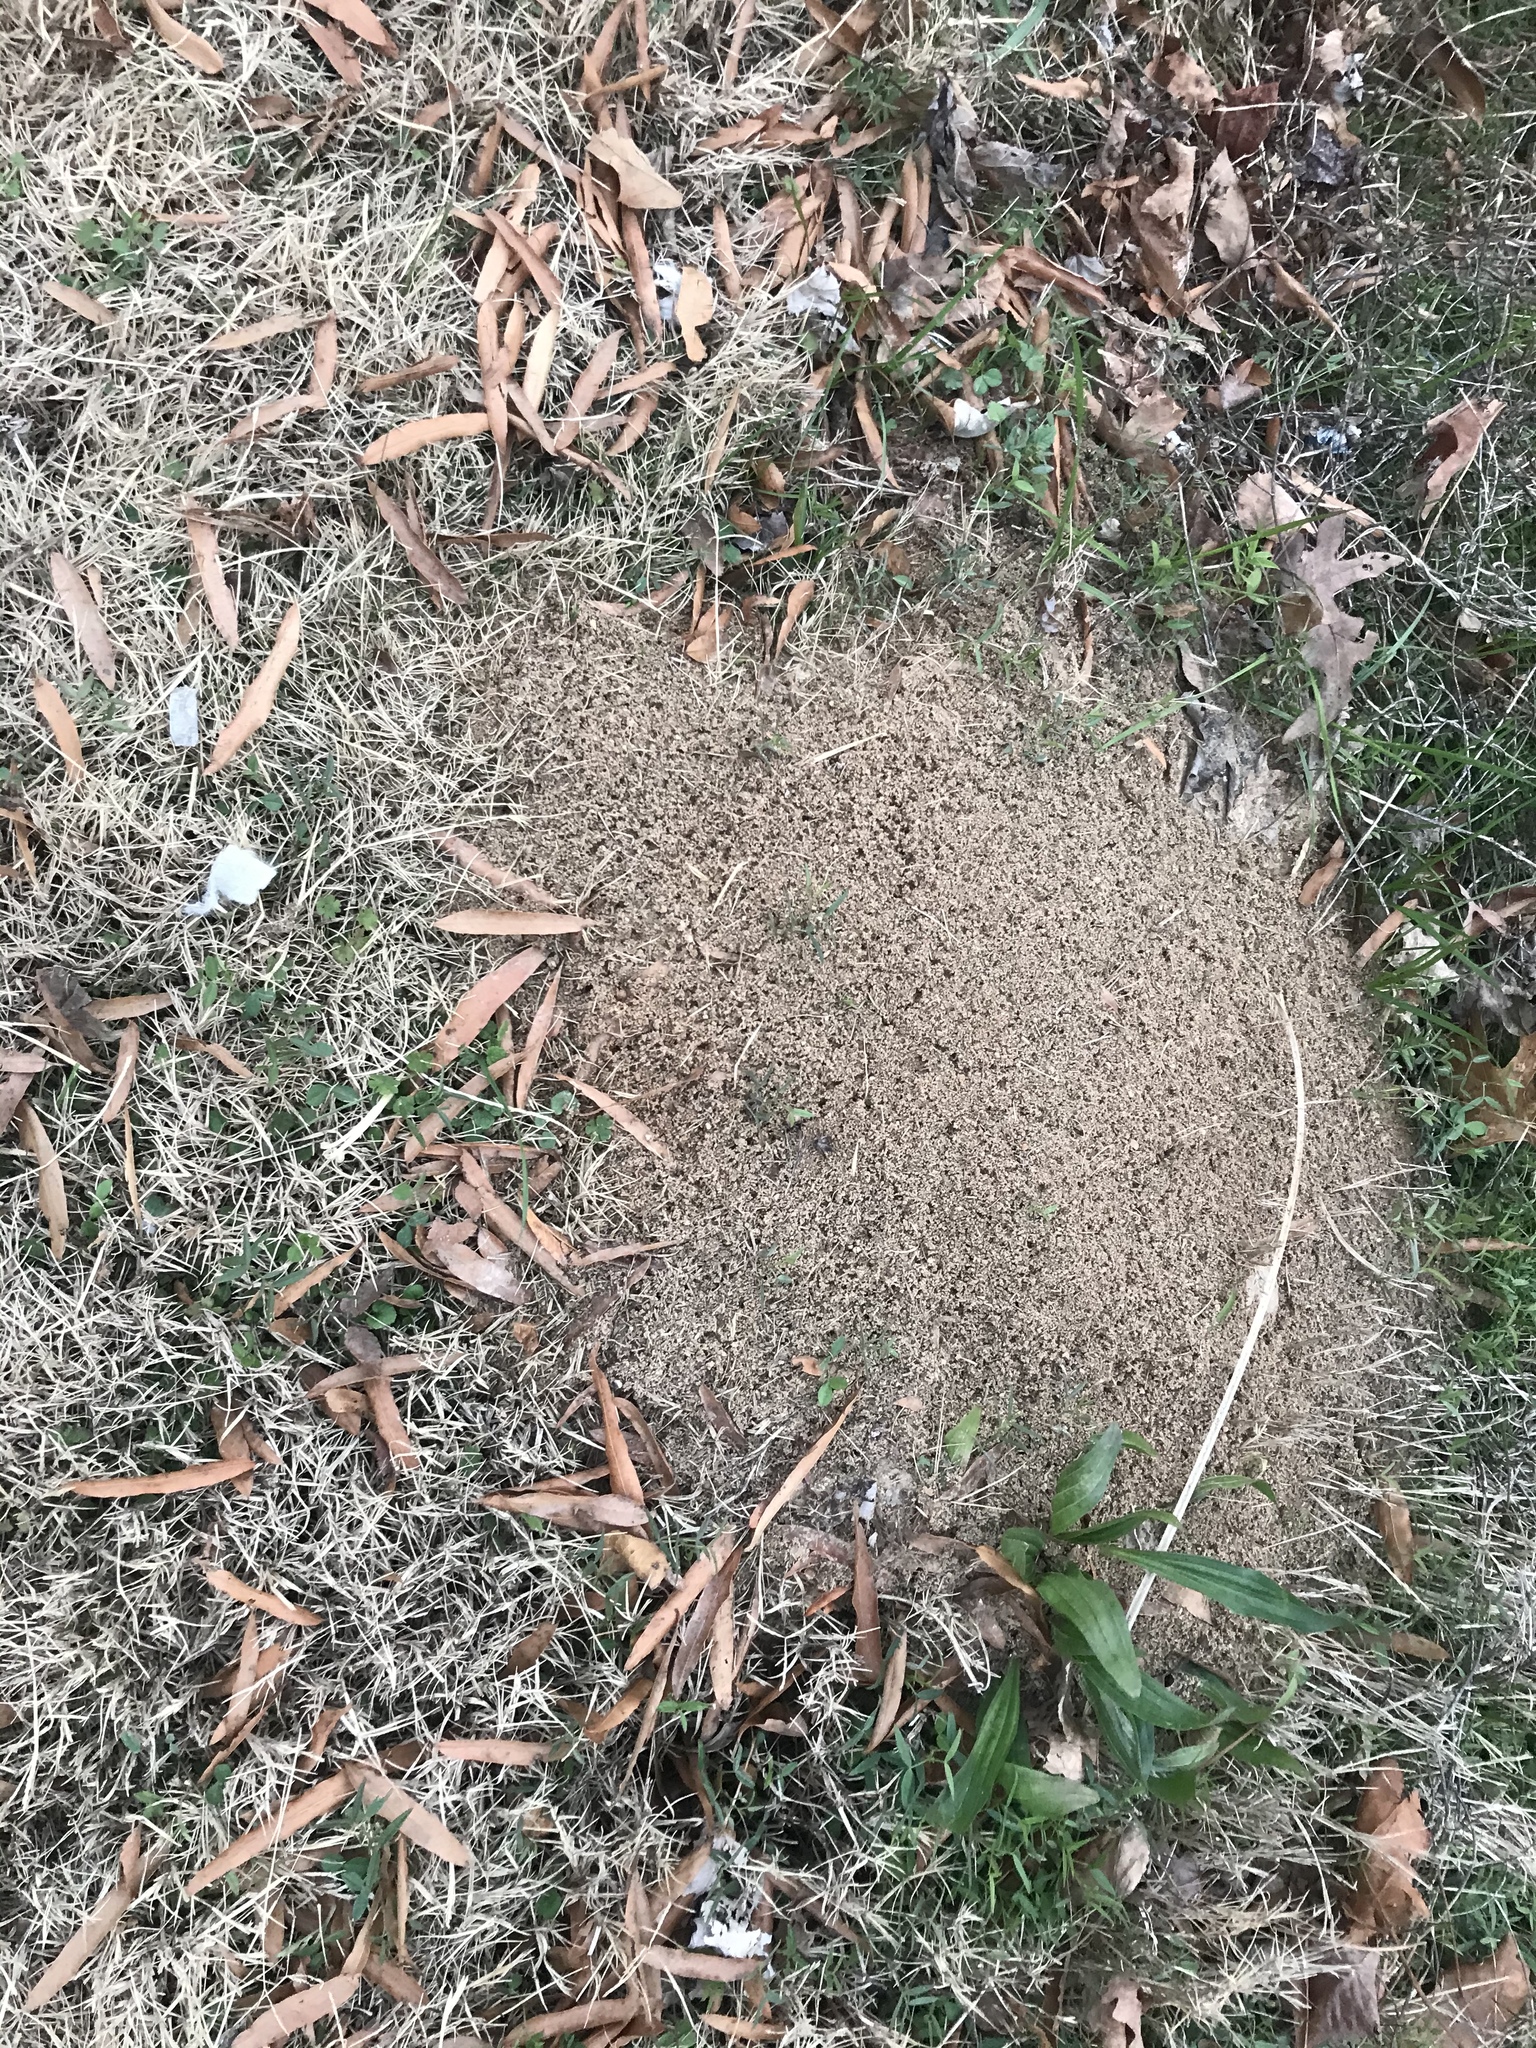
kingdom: Animalia
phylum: Arthropoda
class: Insecta
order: Hymenoptera
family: Formicidae
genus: Solenopsis
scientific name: Solenopsis invicta
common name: Red imported fire ant
